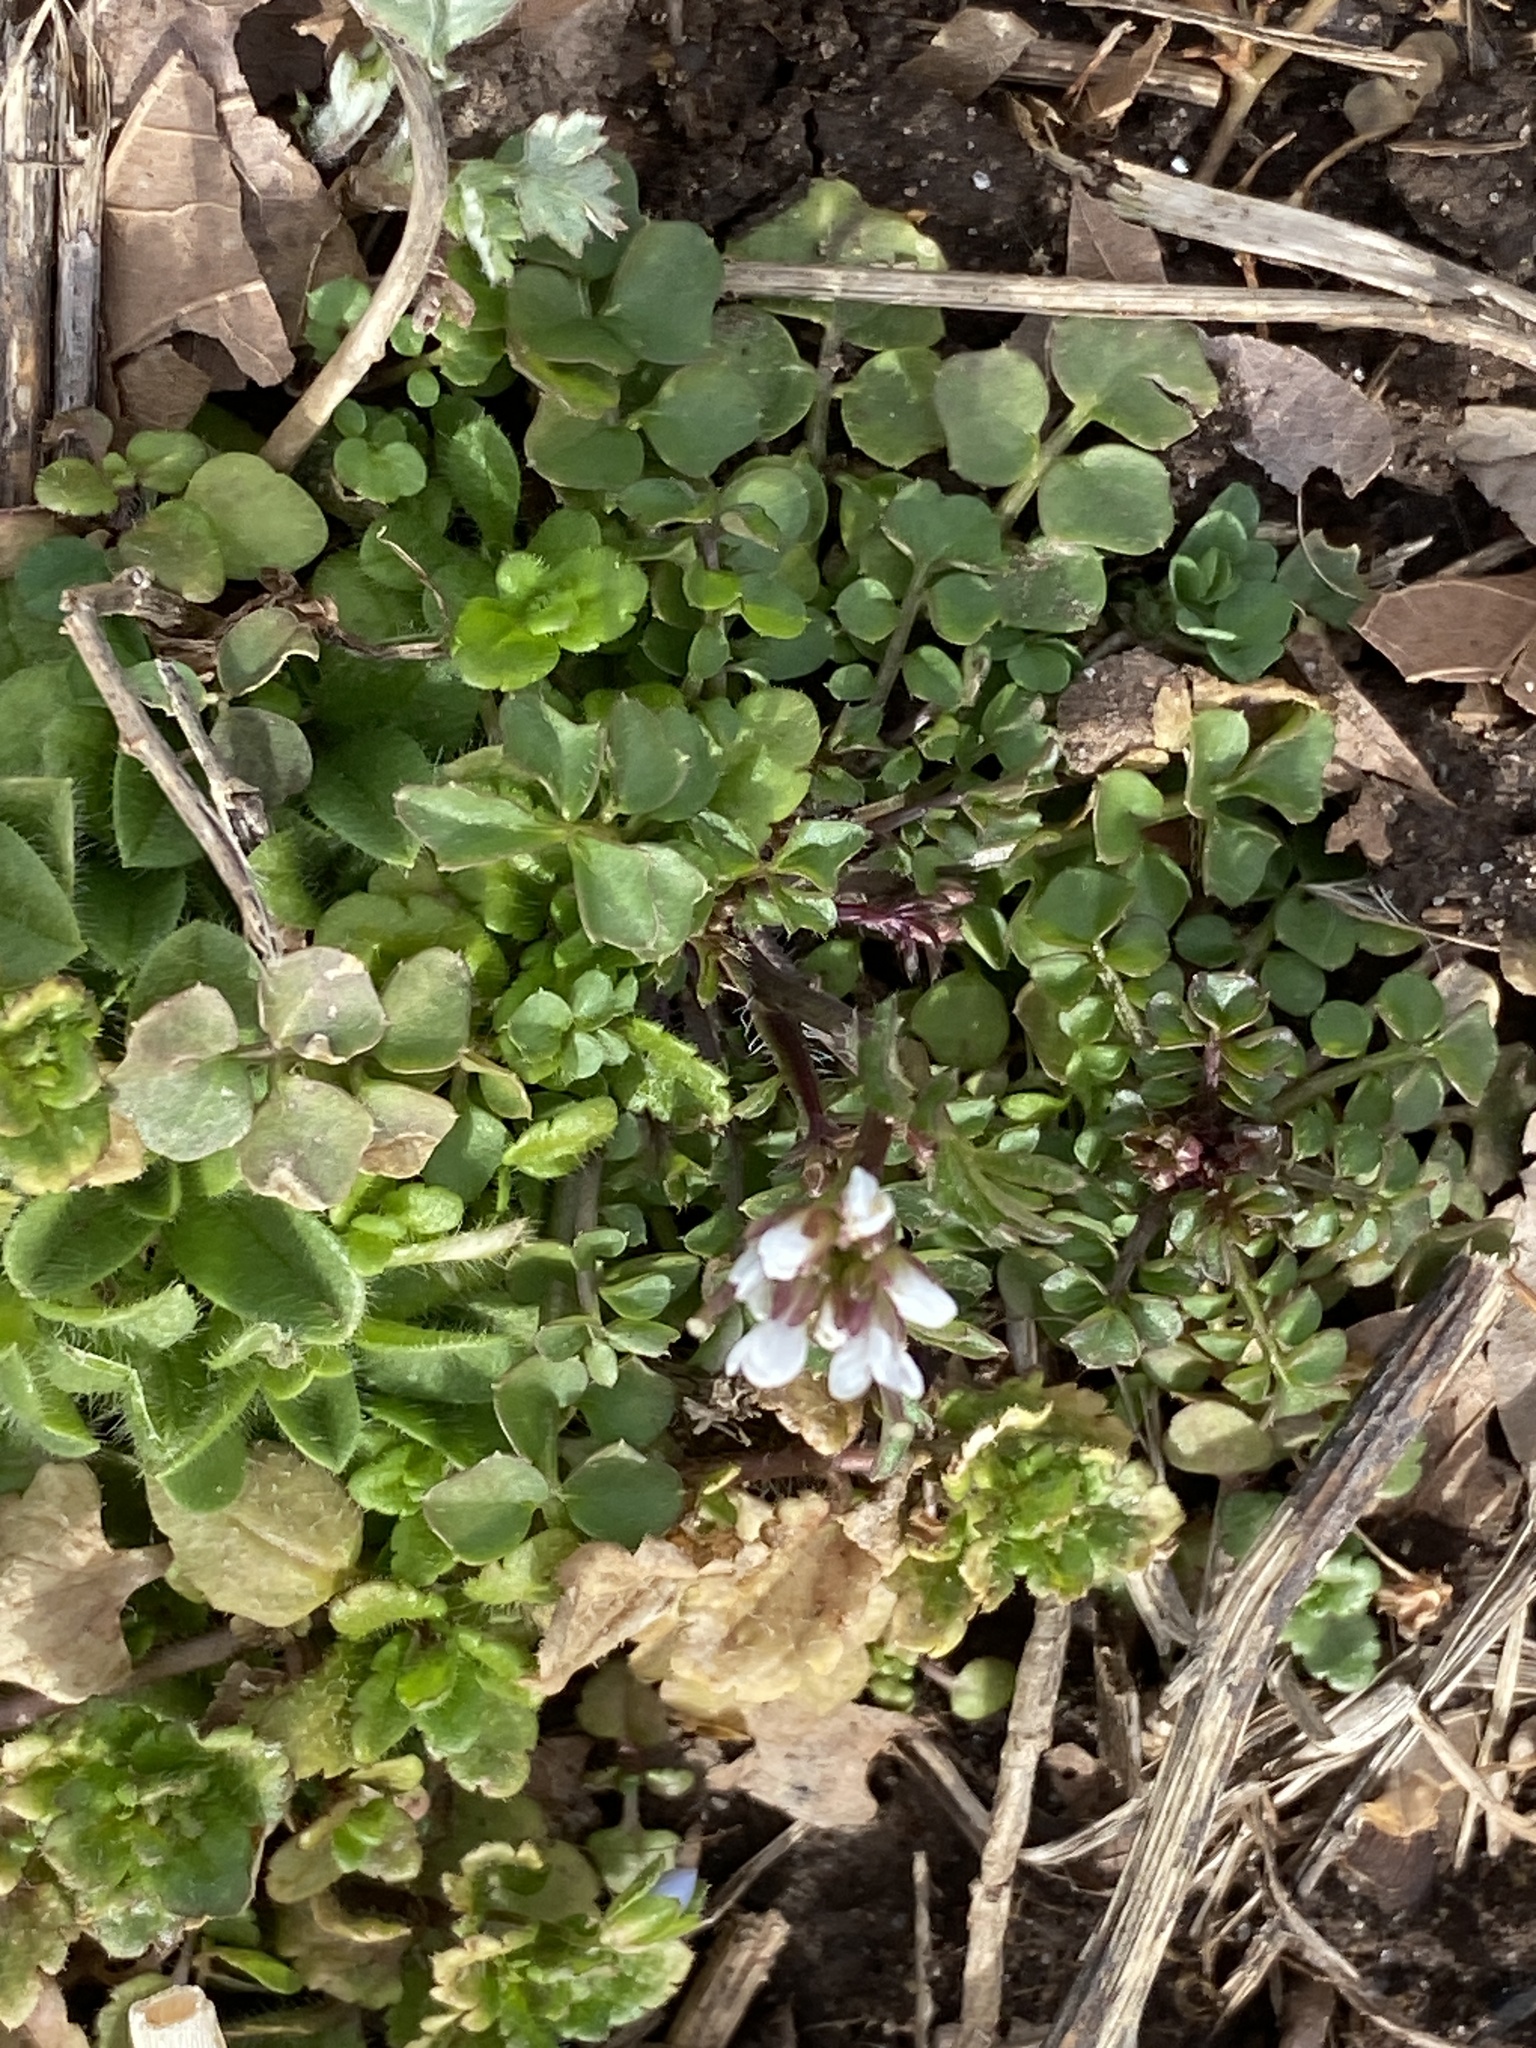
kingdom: Plantae
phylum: Tracheophyta
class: Magnoliopsida
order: Brassicales
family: Brassicaceae
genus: Cardamine
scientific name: Cardamine hirsuta
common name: Hairy bittercress
